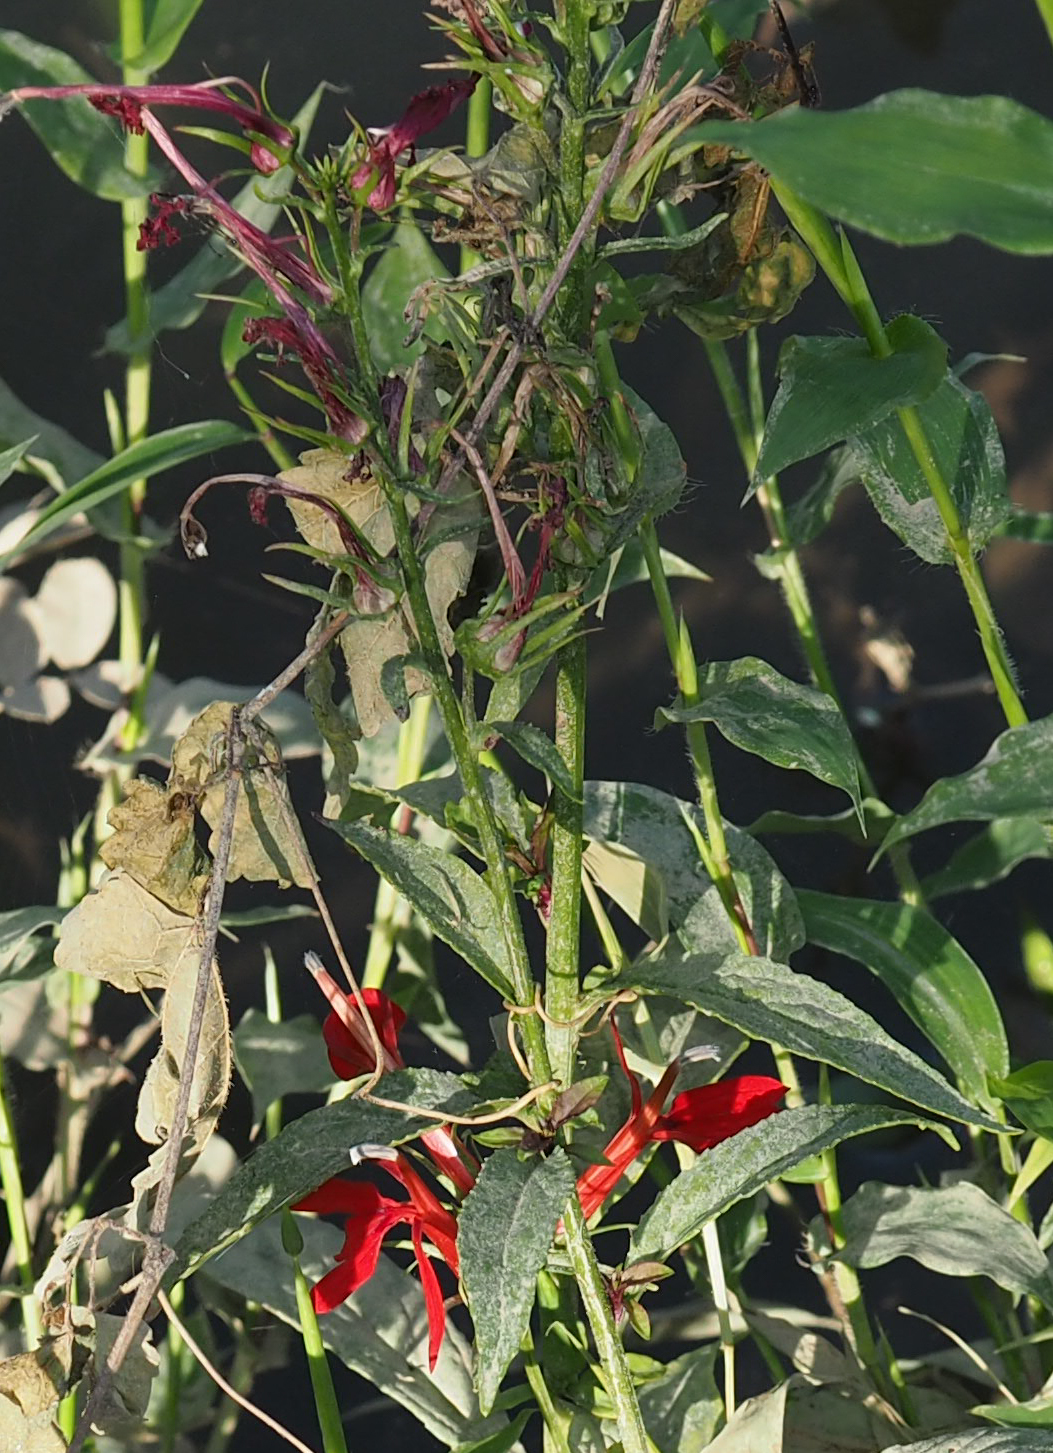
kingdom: Plantae
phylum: Tracheophyta
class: Magnoliopsida
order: Asterales
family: Campanulaceae
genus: Lobelia
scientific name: Lobelia cardinalis
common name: Cardinal flower
